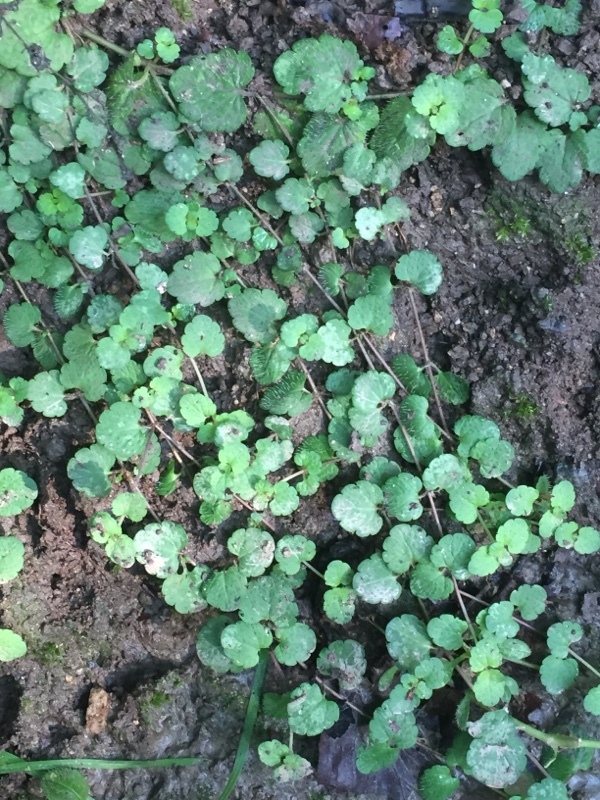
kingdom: Plantae
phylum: Tracheophyta
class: Magnoliopsida
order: Lamiales
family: Lamiaceae
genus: Glechoma
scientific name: Glechoma hederacea
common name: Ground ivy
